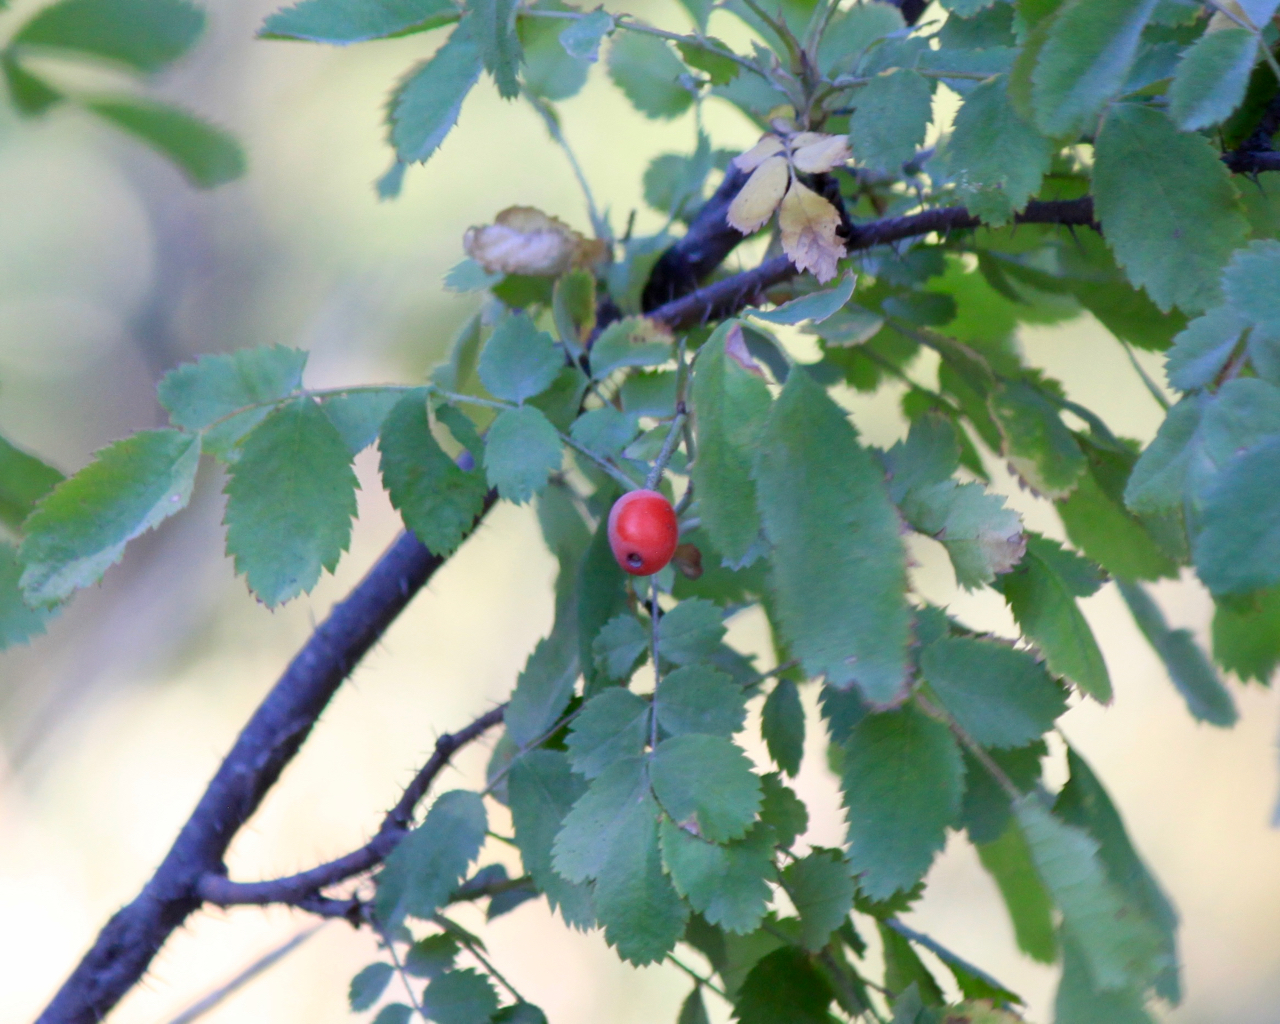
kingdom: Plantae
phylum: Tracheophyta
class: Magnoliopsida
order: Rosales
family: Rosaceae
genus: Rosa
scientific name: Rosa gymnocarpa
